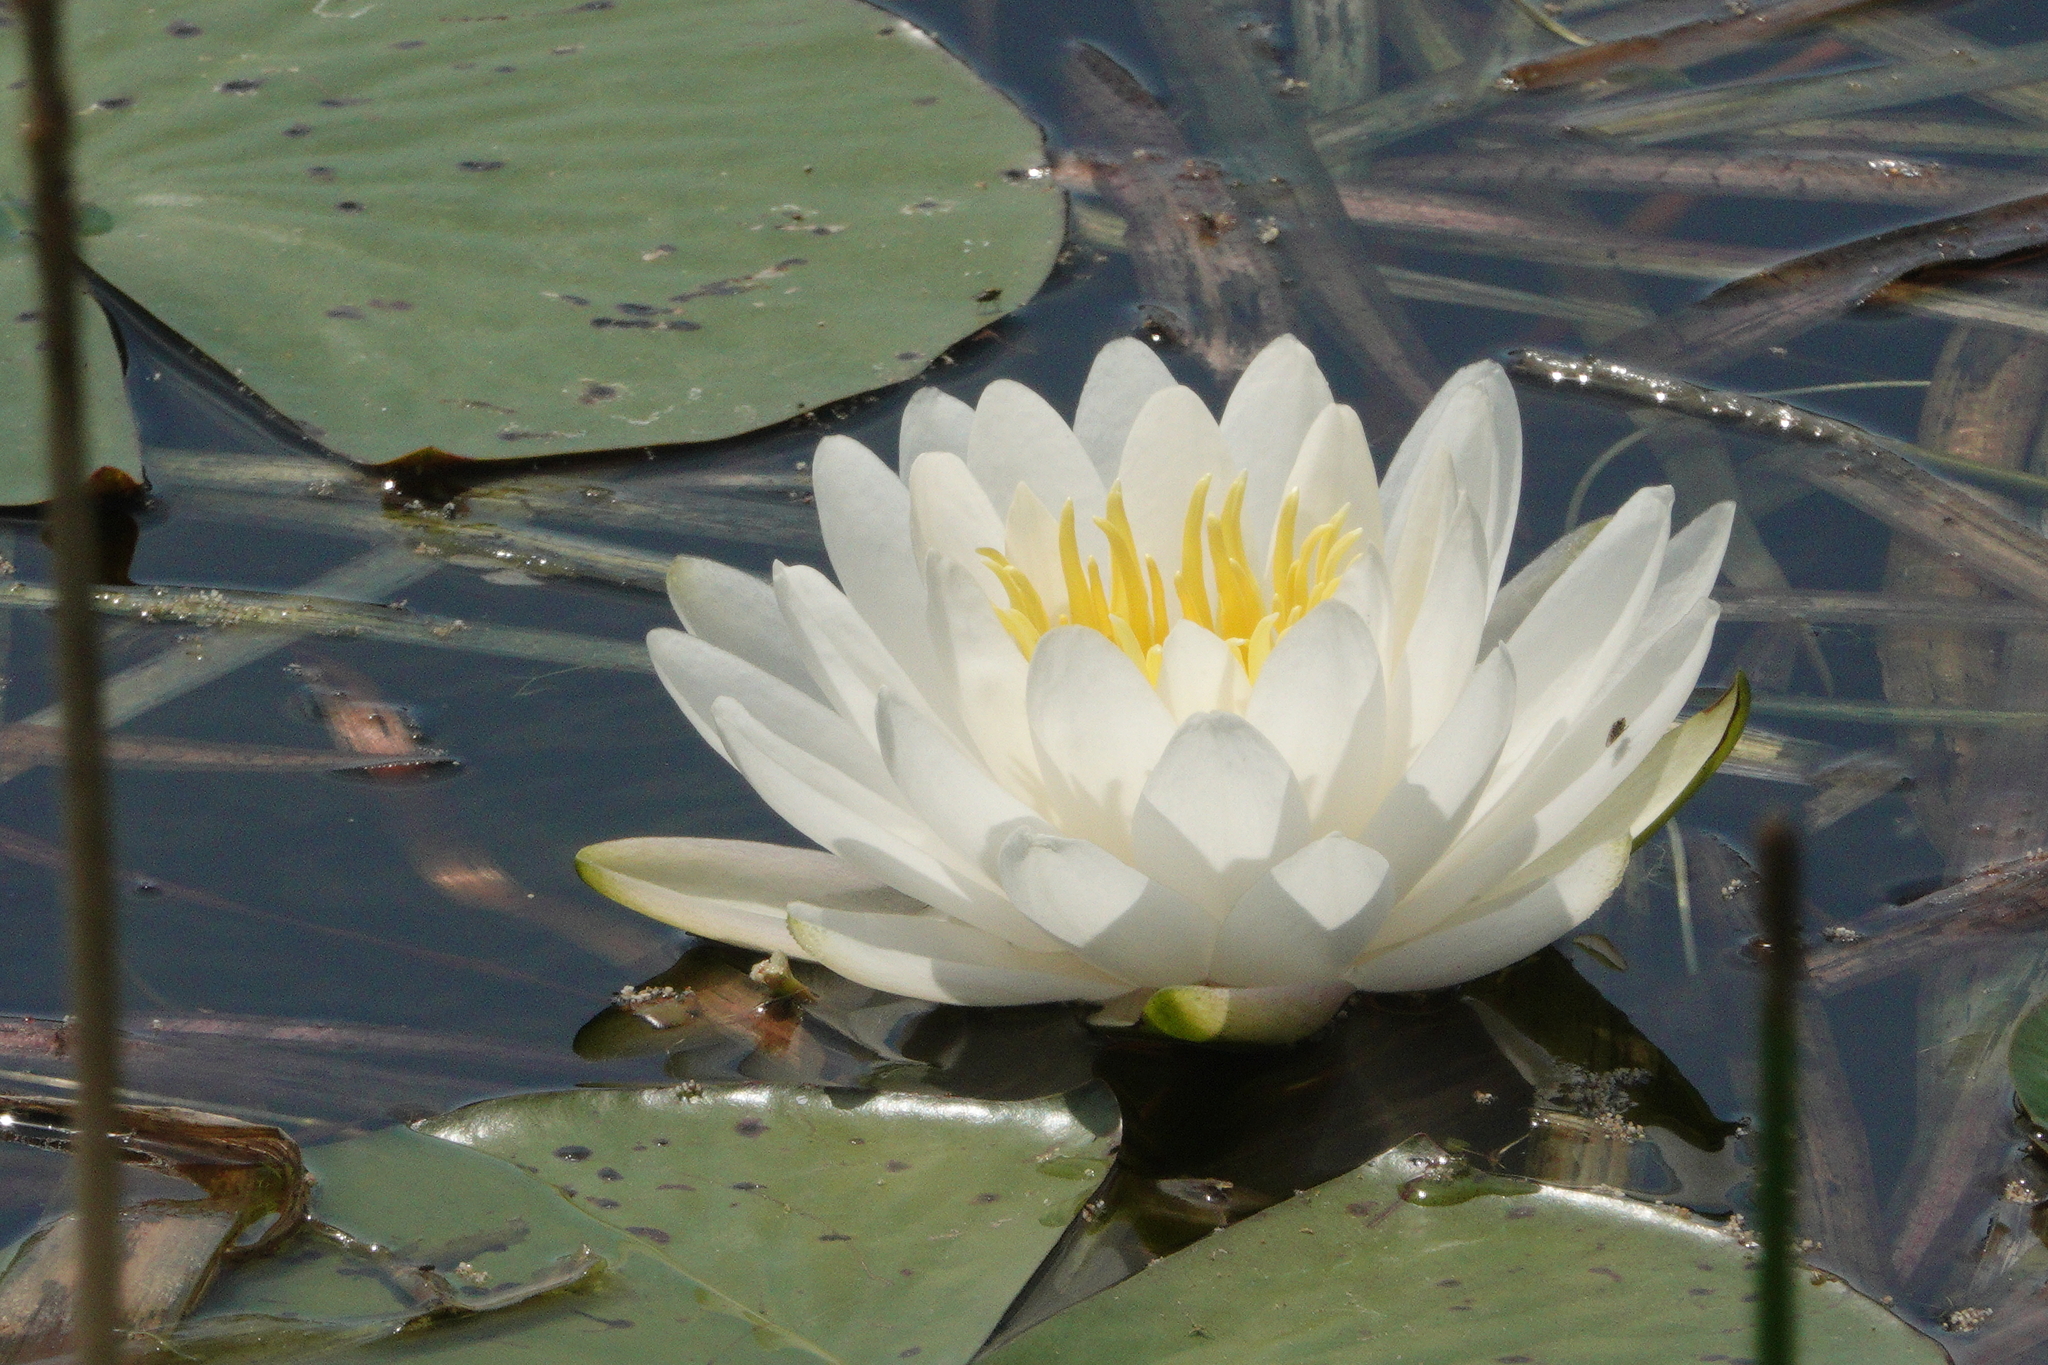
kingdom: Plantae
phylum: Tracheophyta
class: Magnoliopsida
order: Nymphaeales
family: Nymphaeaceae
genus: Nymphaea
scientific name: Nymphaea odorata
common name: Fragrant water-lily
